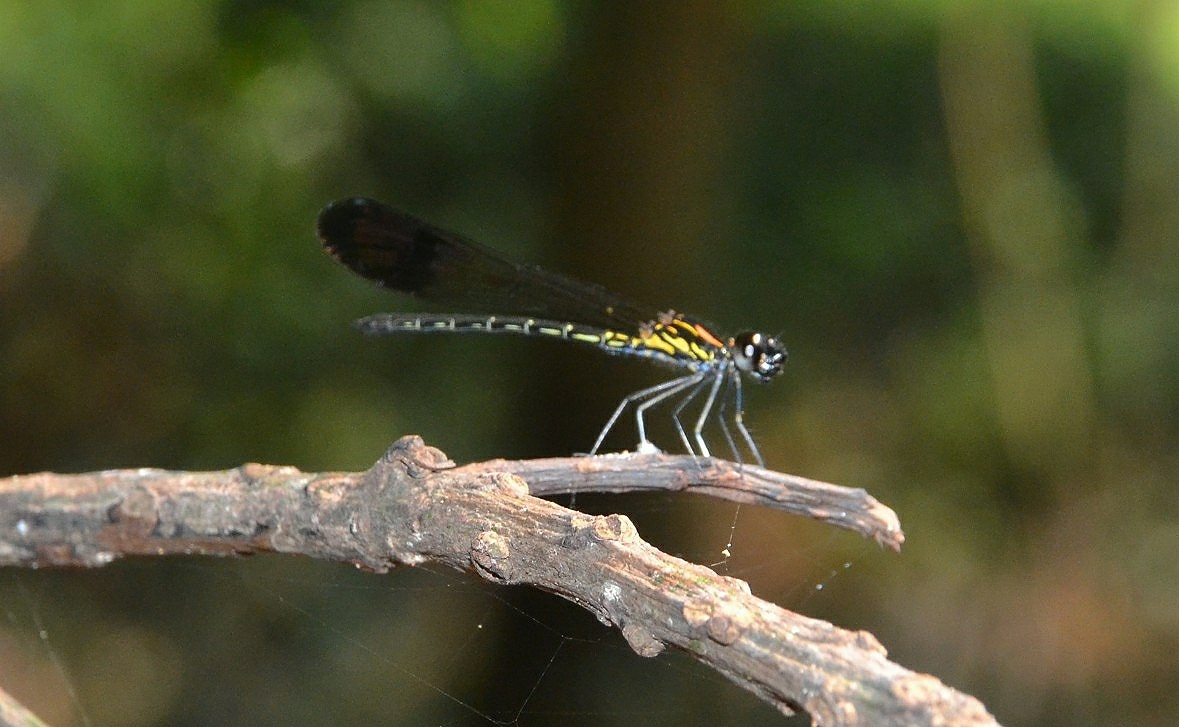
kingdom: Animalia
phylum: Arthropoda
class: Insecta
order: Odonata
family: Chlorocyphidae
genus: Heliocypha
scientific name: Heliocypha bisignata
